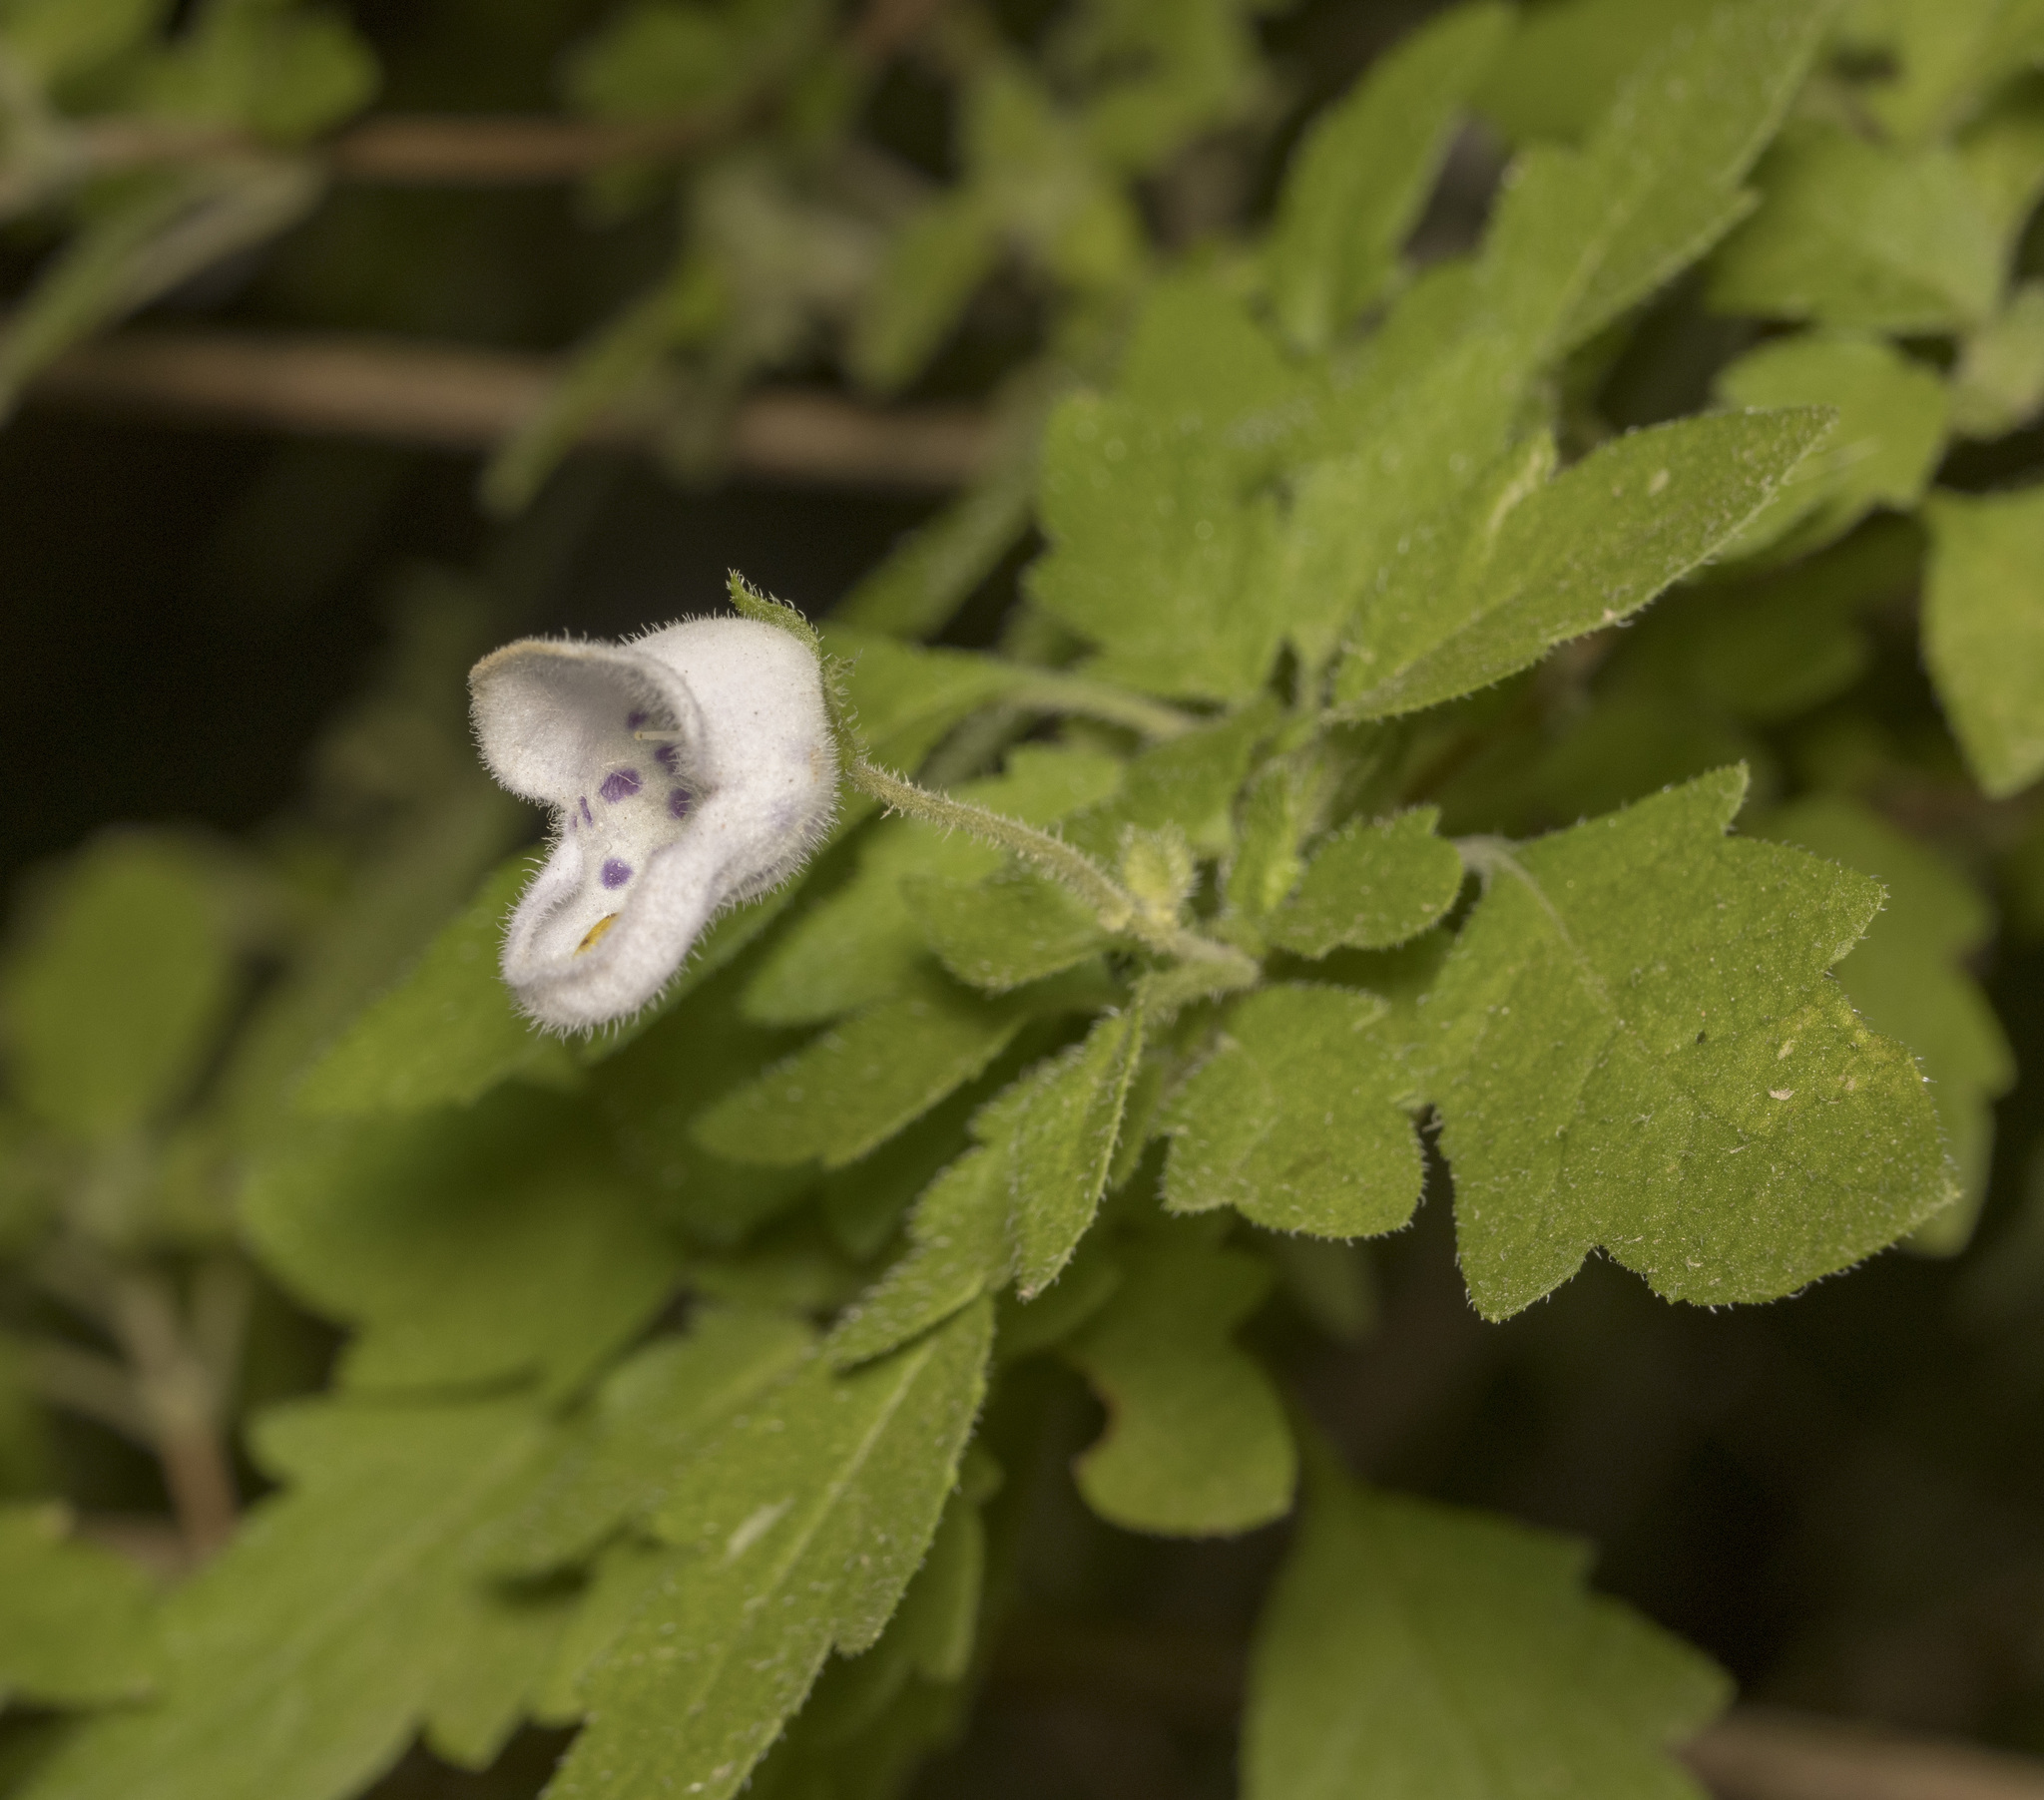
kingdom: Plantae
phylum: Tracheophyta
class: Magnoliopsida
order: Lamiales
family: Calceolariaceae
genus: Jovellana
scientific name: Jovellana violacea
